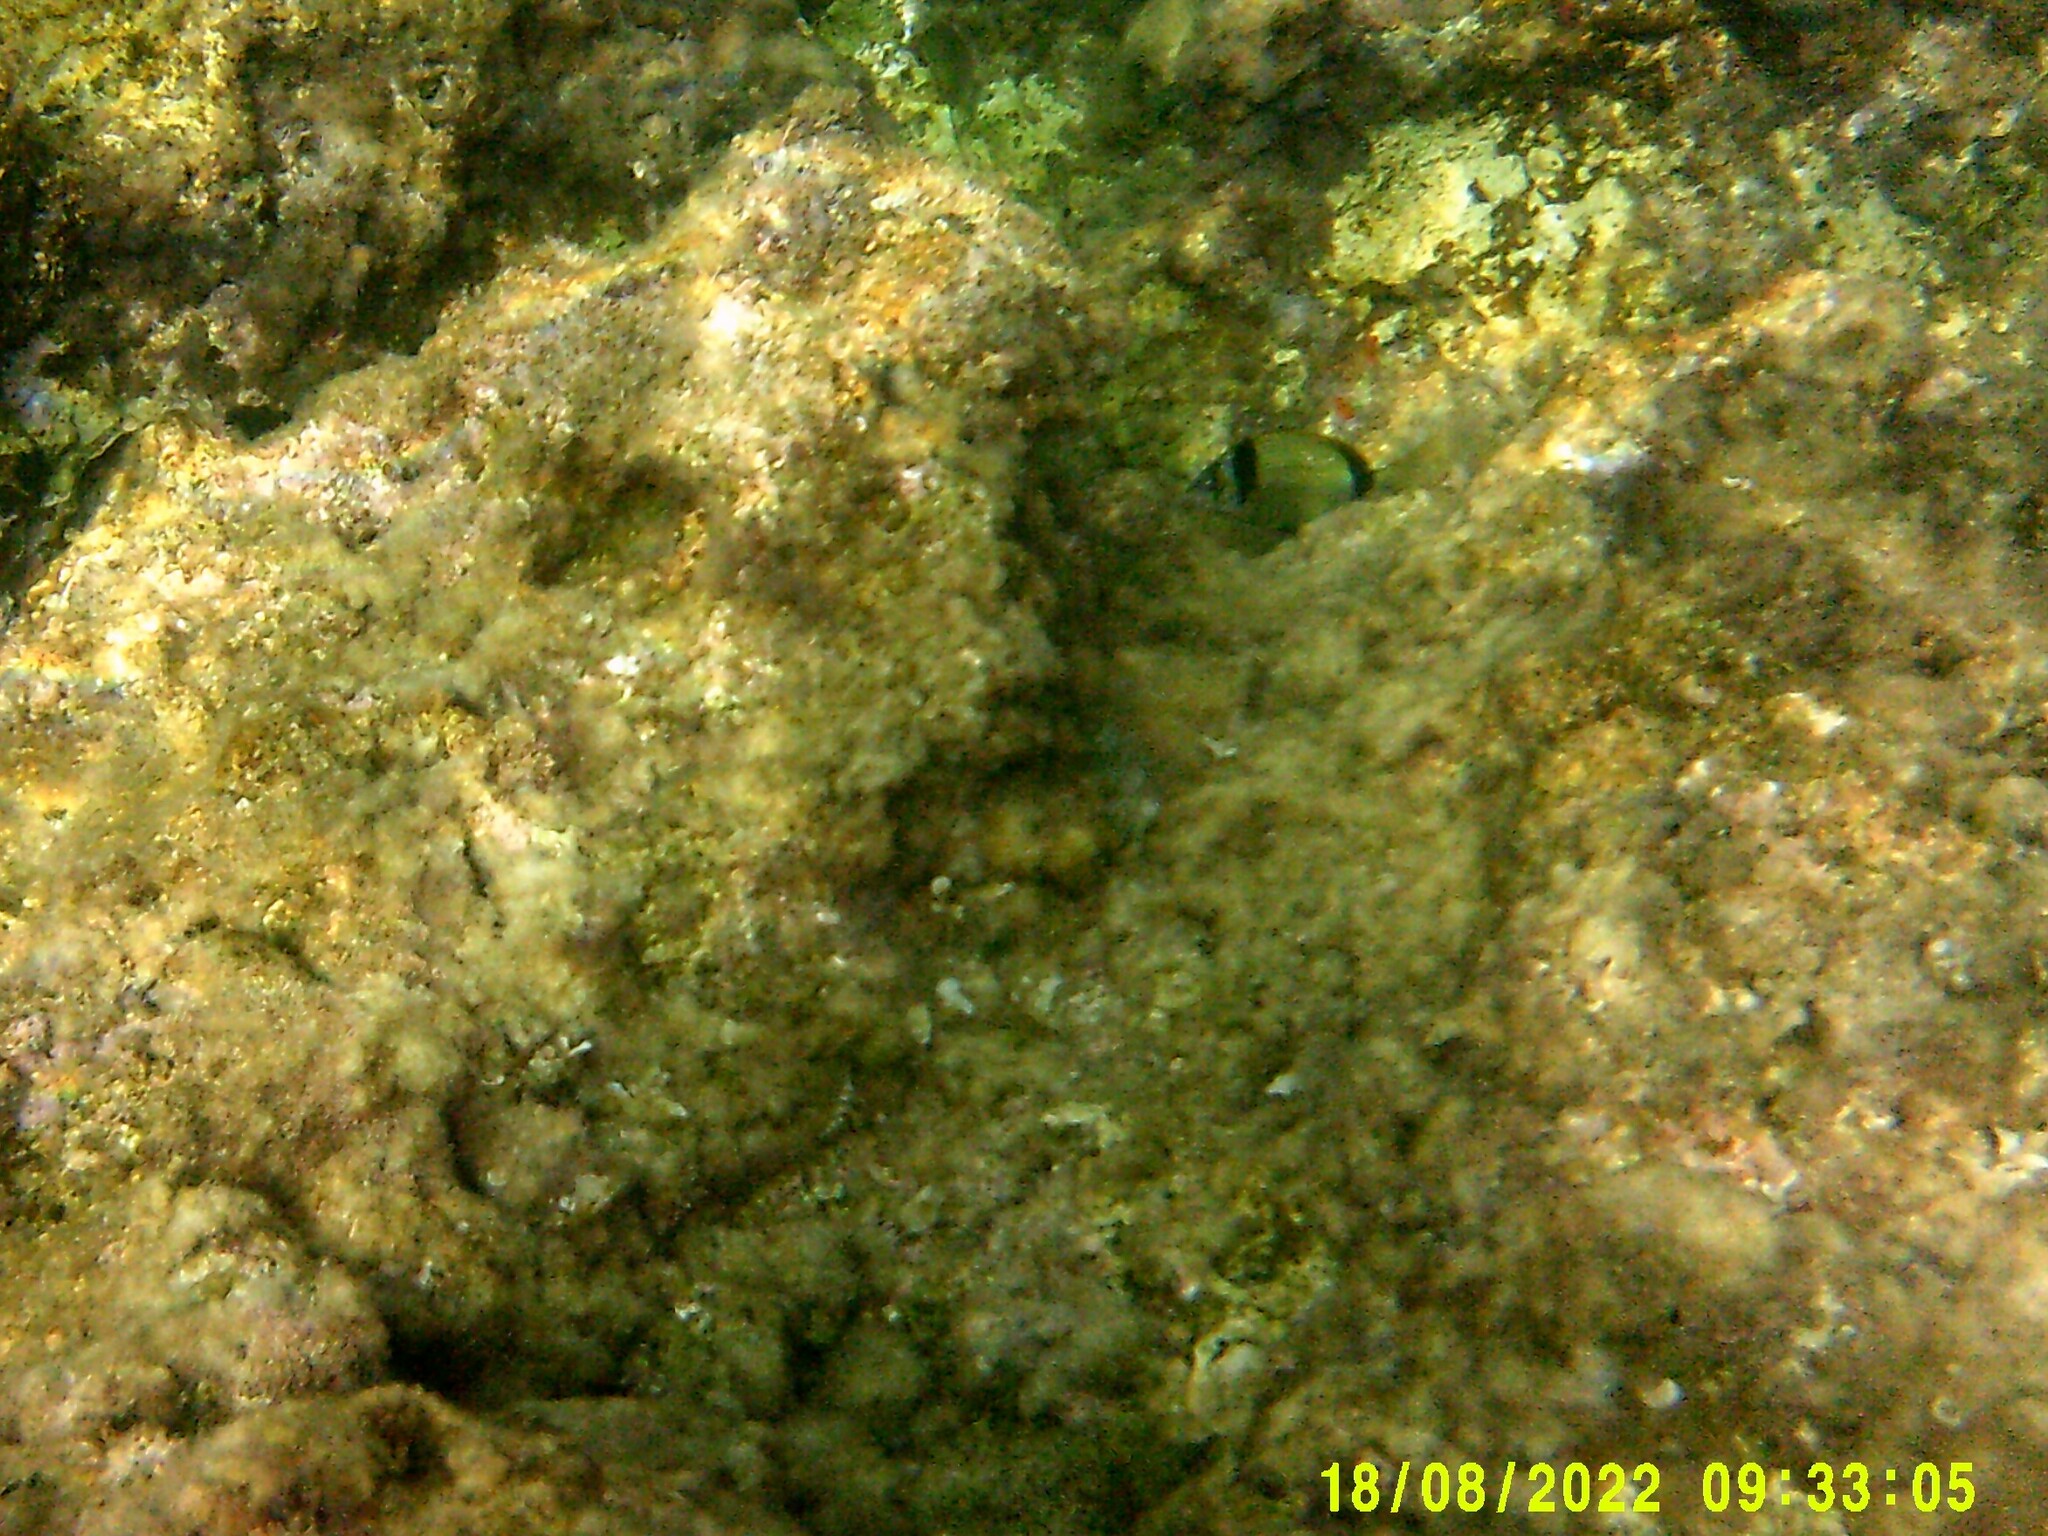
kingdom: Animalia
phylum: Chordata
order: Perciformes
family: Sparidae
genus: Diplodus
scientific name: Diplodus vulgaris
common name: Common two-banded seabream
